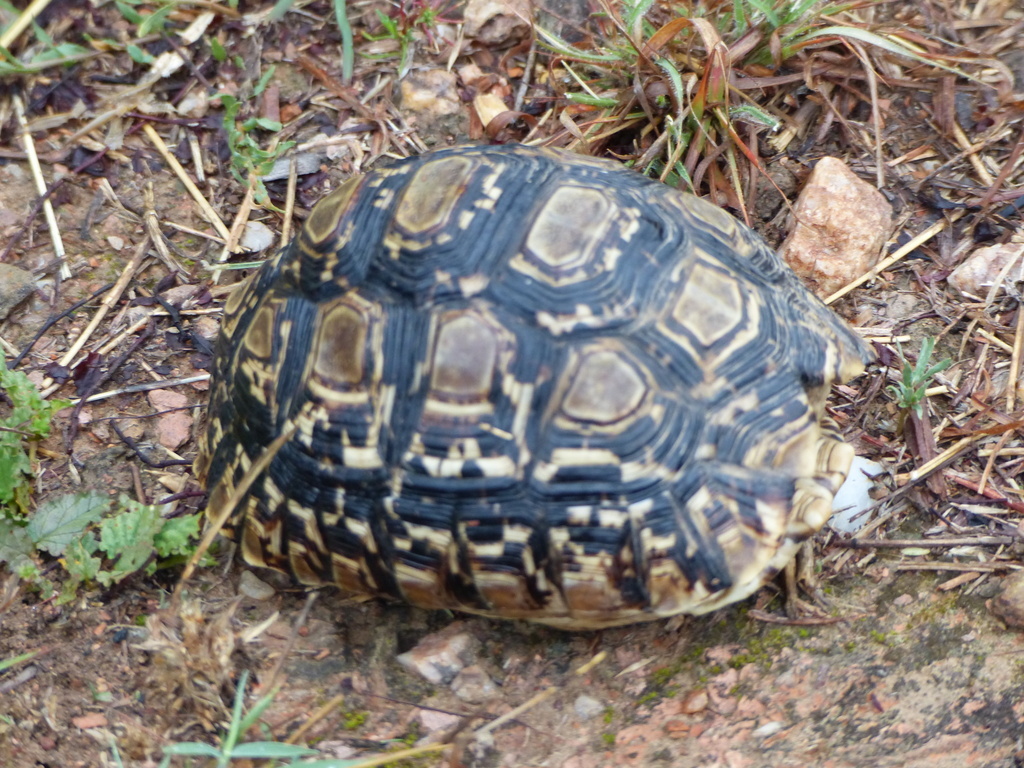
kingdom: Animalia
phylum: Chordata
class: Testudines
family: Testudinidae
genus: Stigmochelys
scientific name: Stigmochelys pardalis
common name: Leopard tortoise
